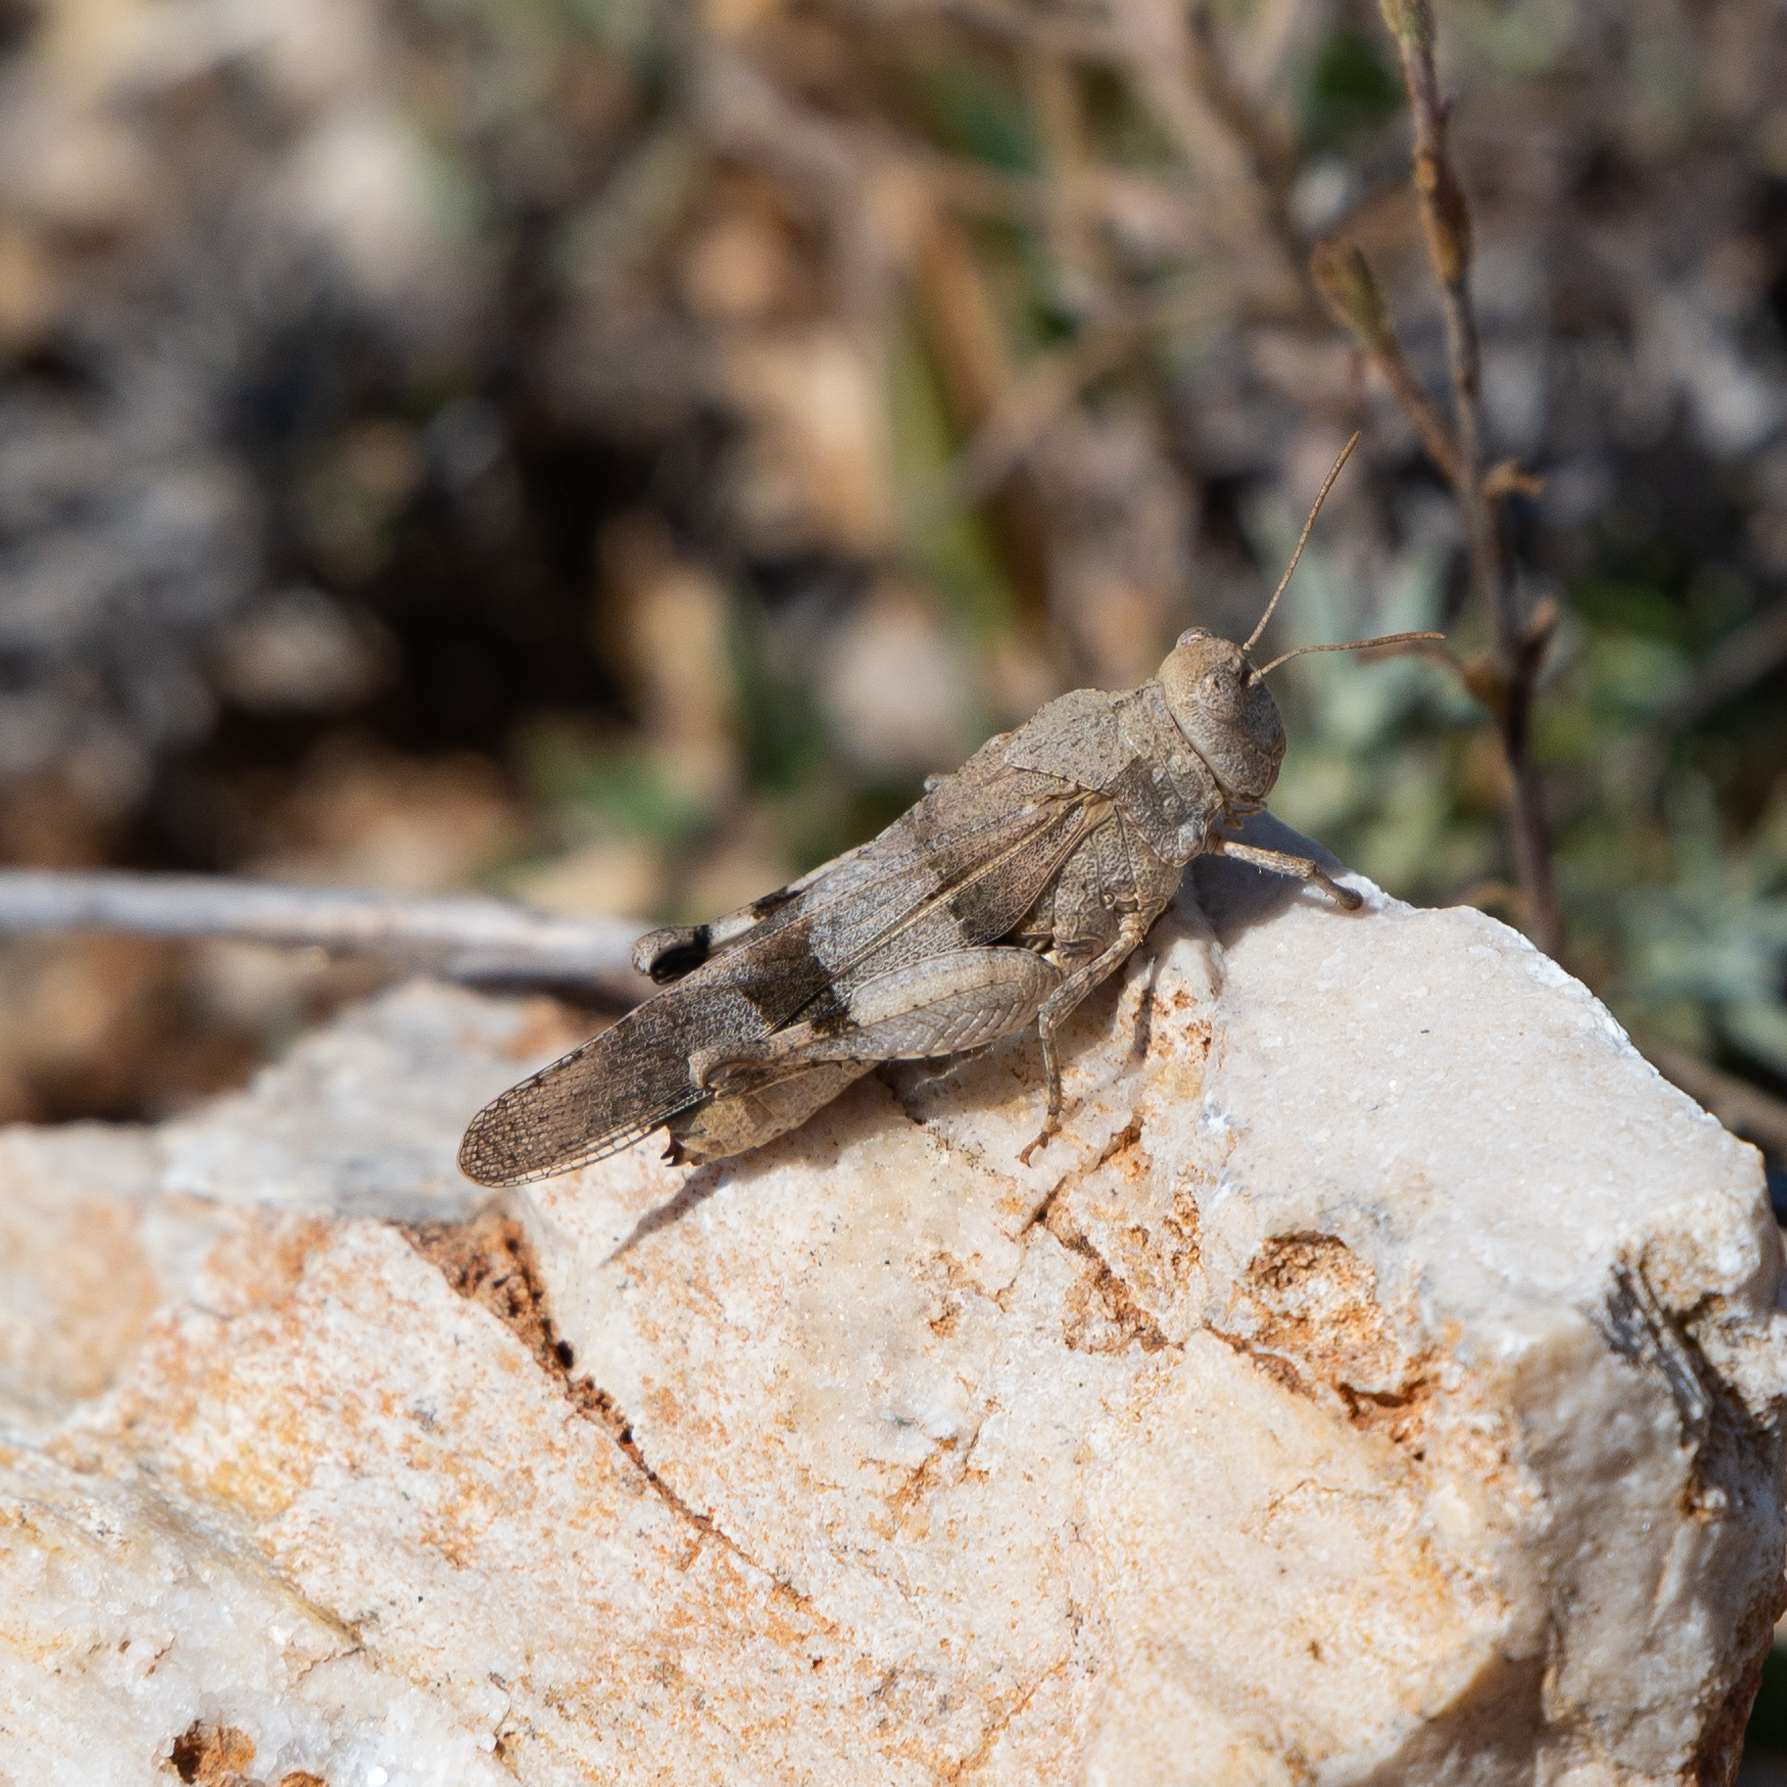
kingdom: Animalia
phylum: Arthropoda
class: Insecta
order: Orthoptera
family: Acrididae
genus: Oedipoda
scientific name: Oedipoda caerulescens
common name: Blue-winged grasshopper
